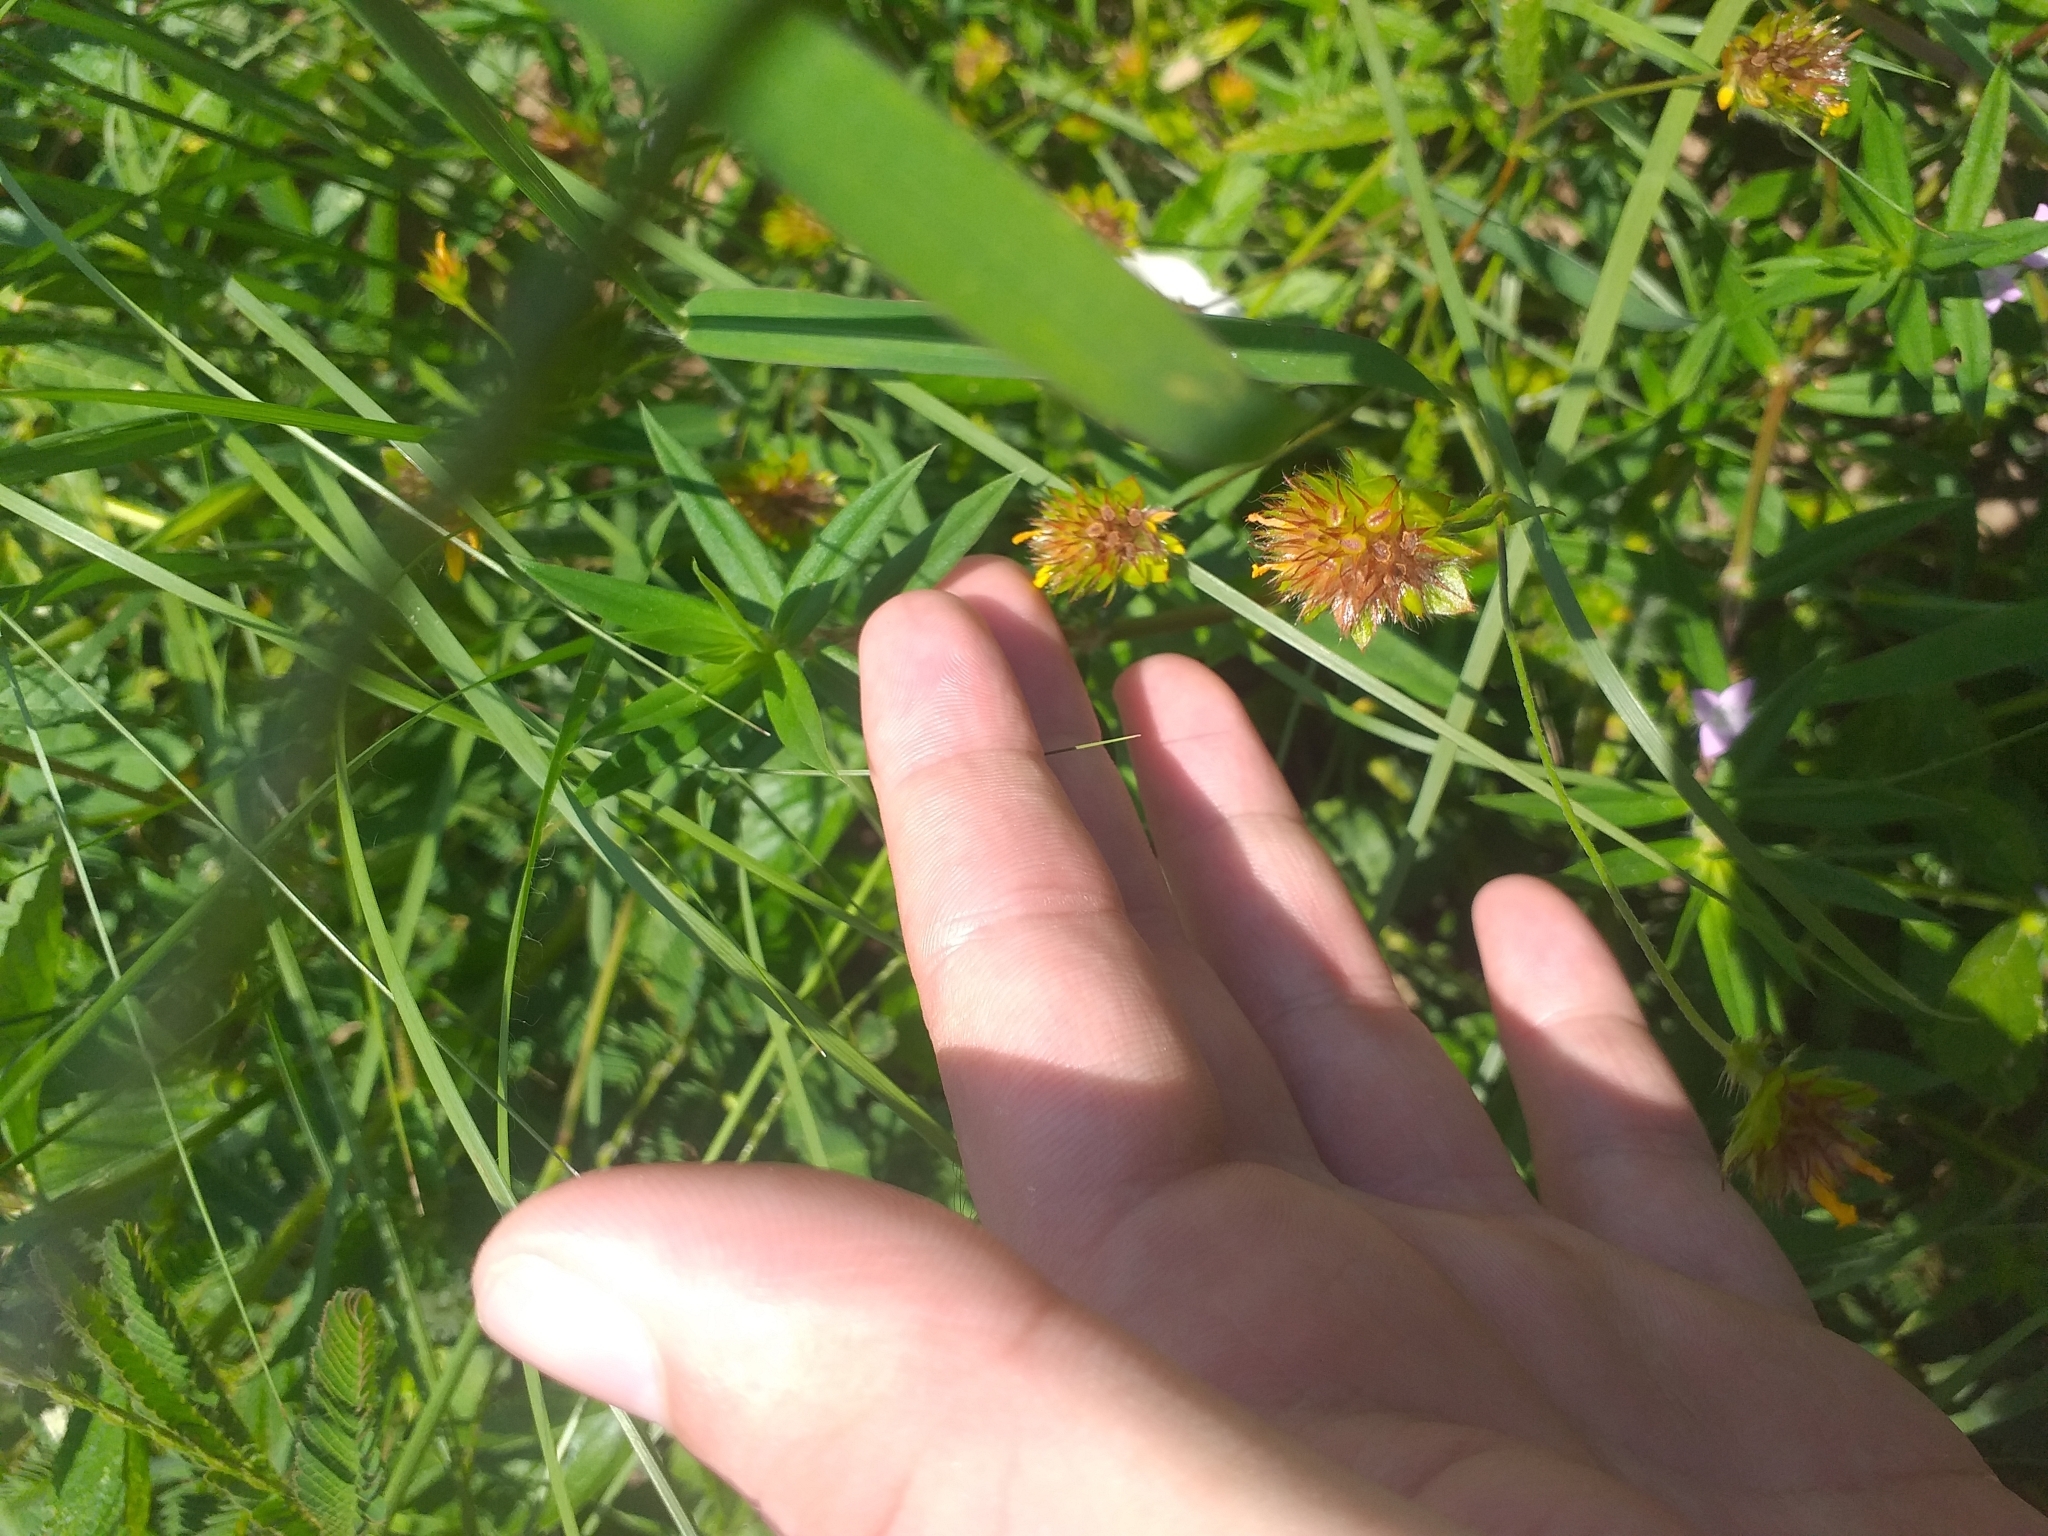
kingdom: Plantae
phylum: Tracheophyta
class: Magnoliopsida
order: Malvales
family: Malvaceae
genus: Waltheria
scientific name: Waltheria operculata
